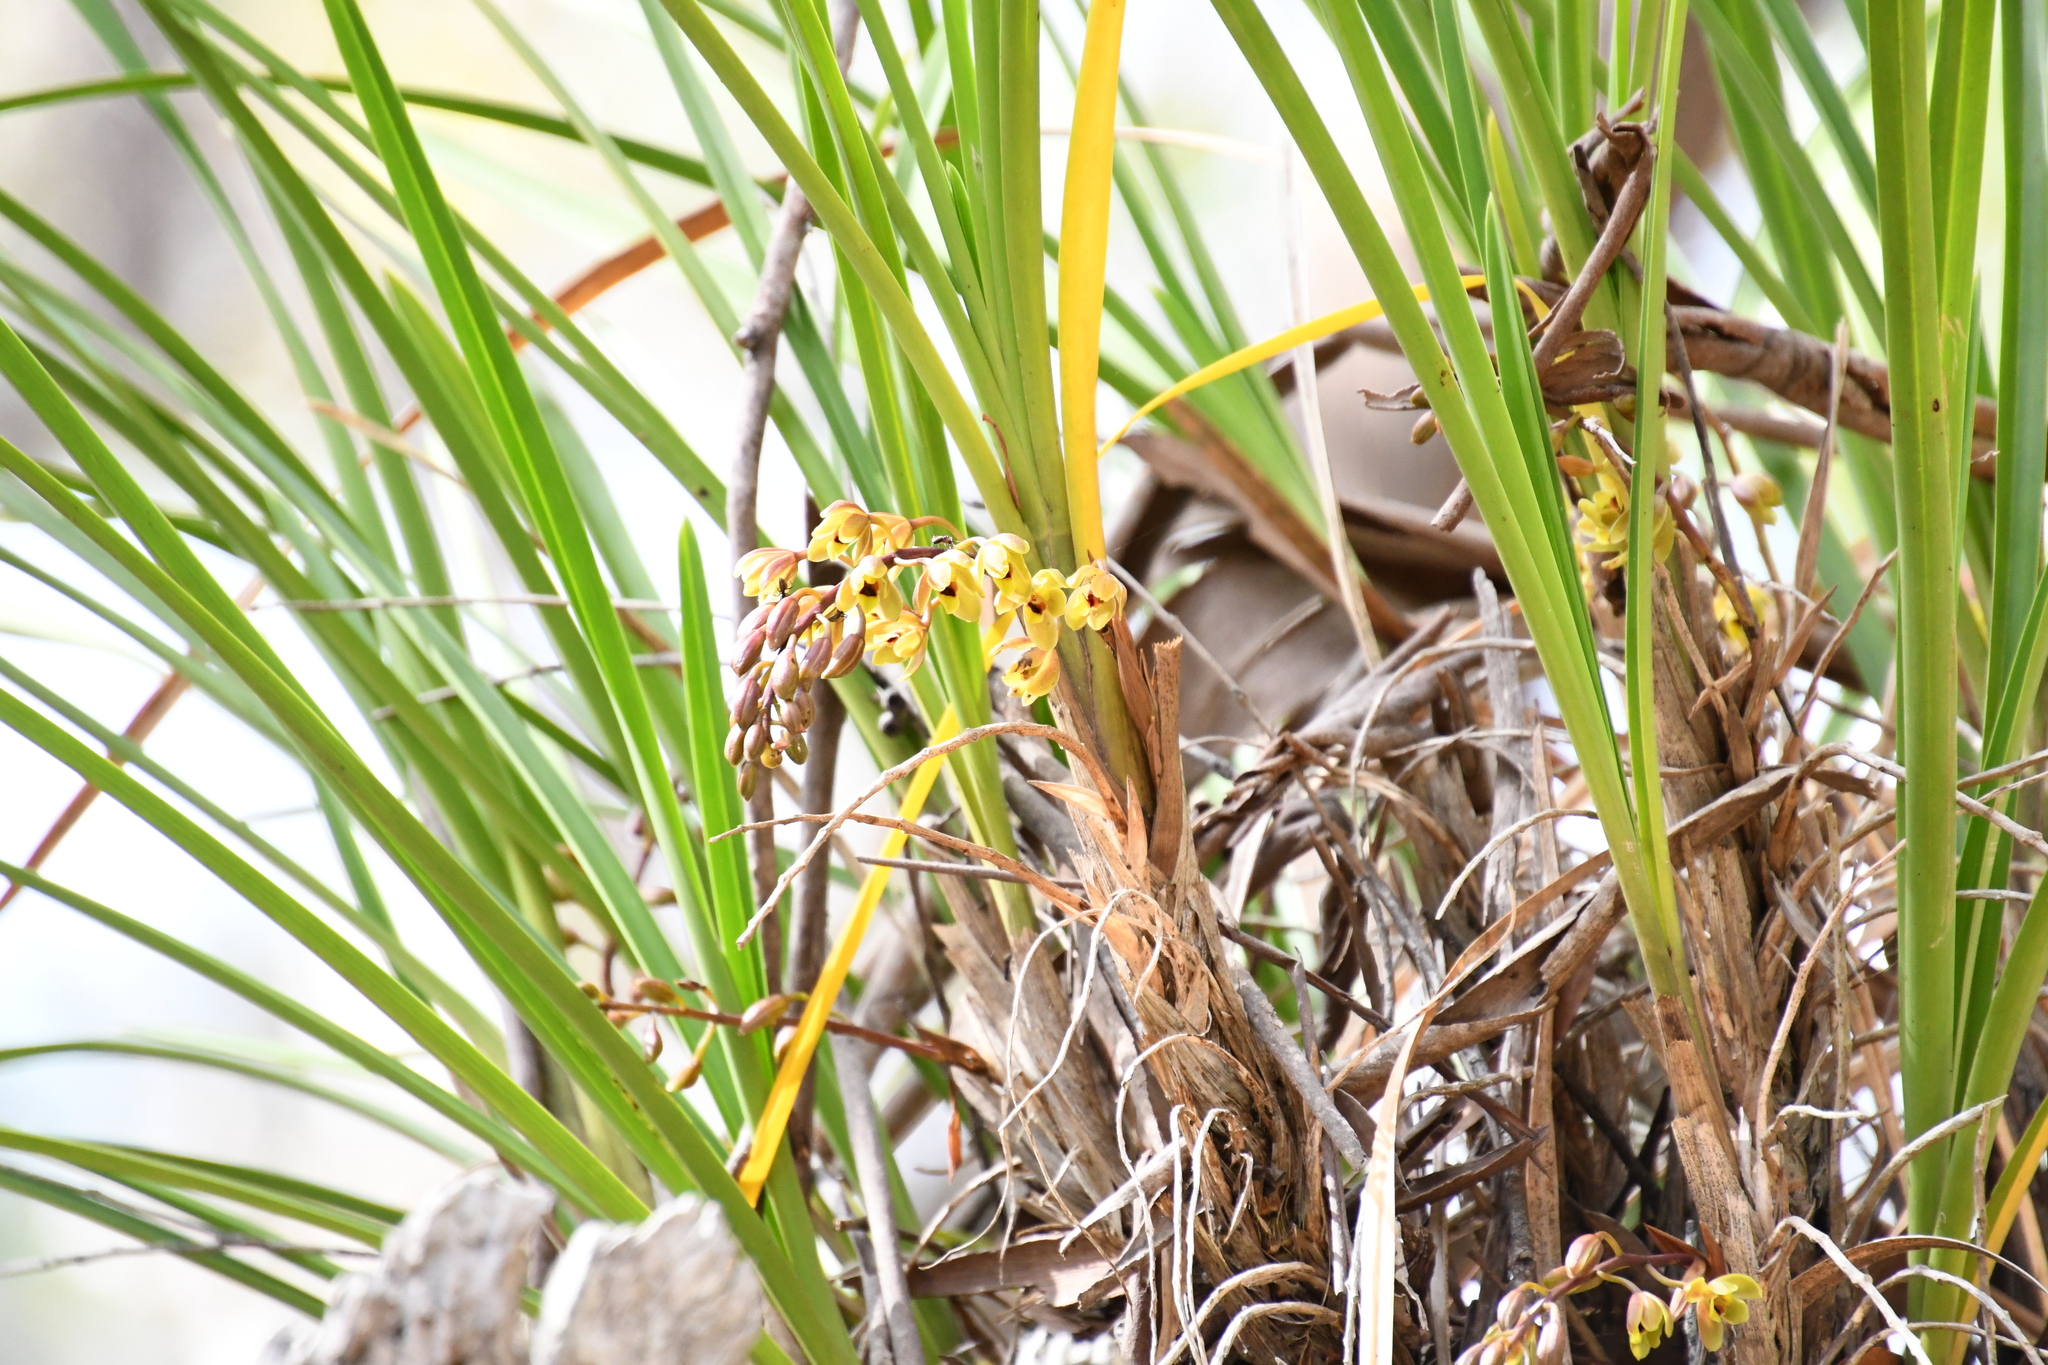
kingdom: Plantae
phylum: Tracheophyta
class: Liliopsida
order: Asparagales
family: Orchidaceae
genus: Cymbidium
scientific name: Cymbidium suave
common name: Snake orchid
